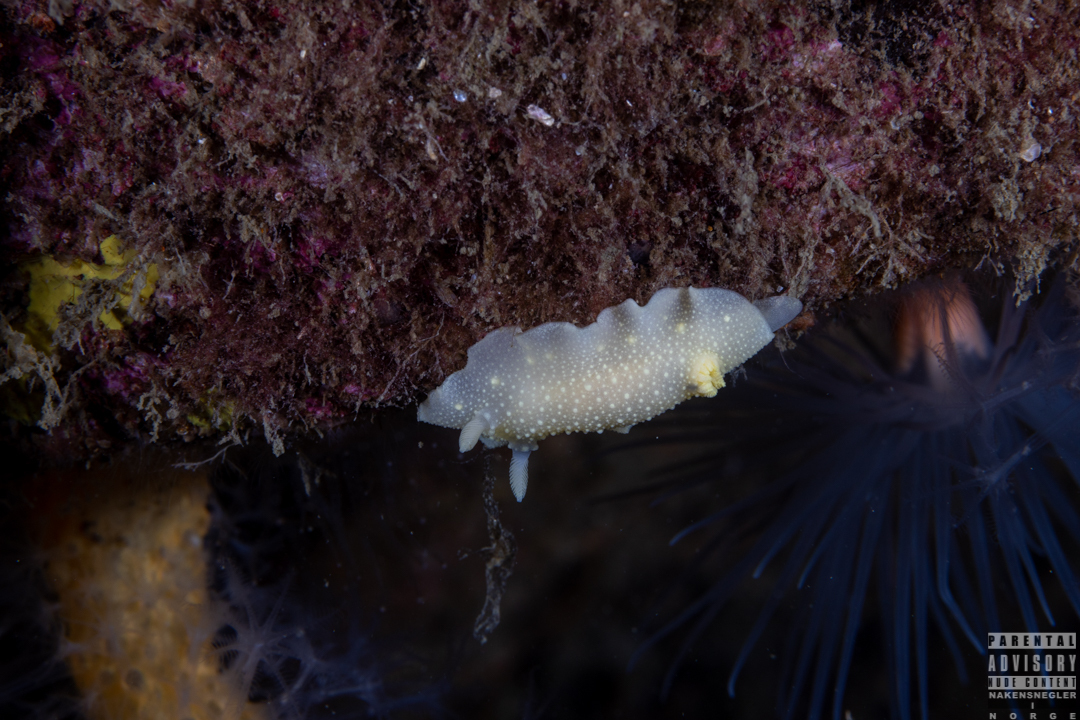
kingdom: Animalia
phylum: Mollusca
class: Gastropoda
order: Nudibranchia
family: Cadlinidae
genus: Cadlina
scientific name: Cadlina laevis
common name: White atlantic cadlina
